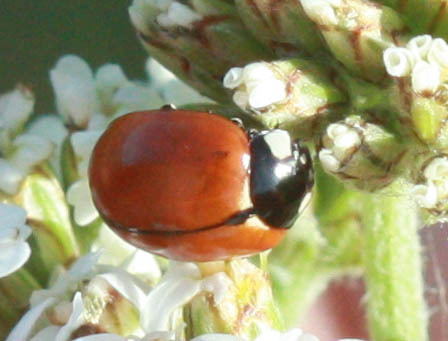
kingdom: Animalia
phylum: Arthropoda
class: Insecta
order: Coleoptera
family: Coccinellidae
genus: Coccinella
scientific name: Coccinella californica
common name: Lady beetle
